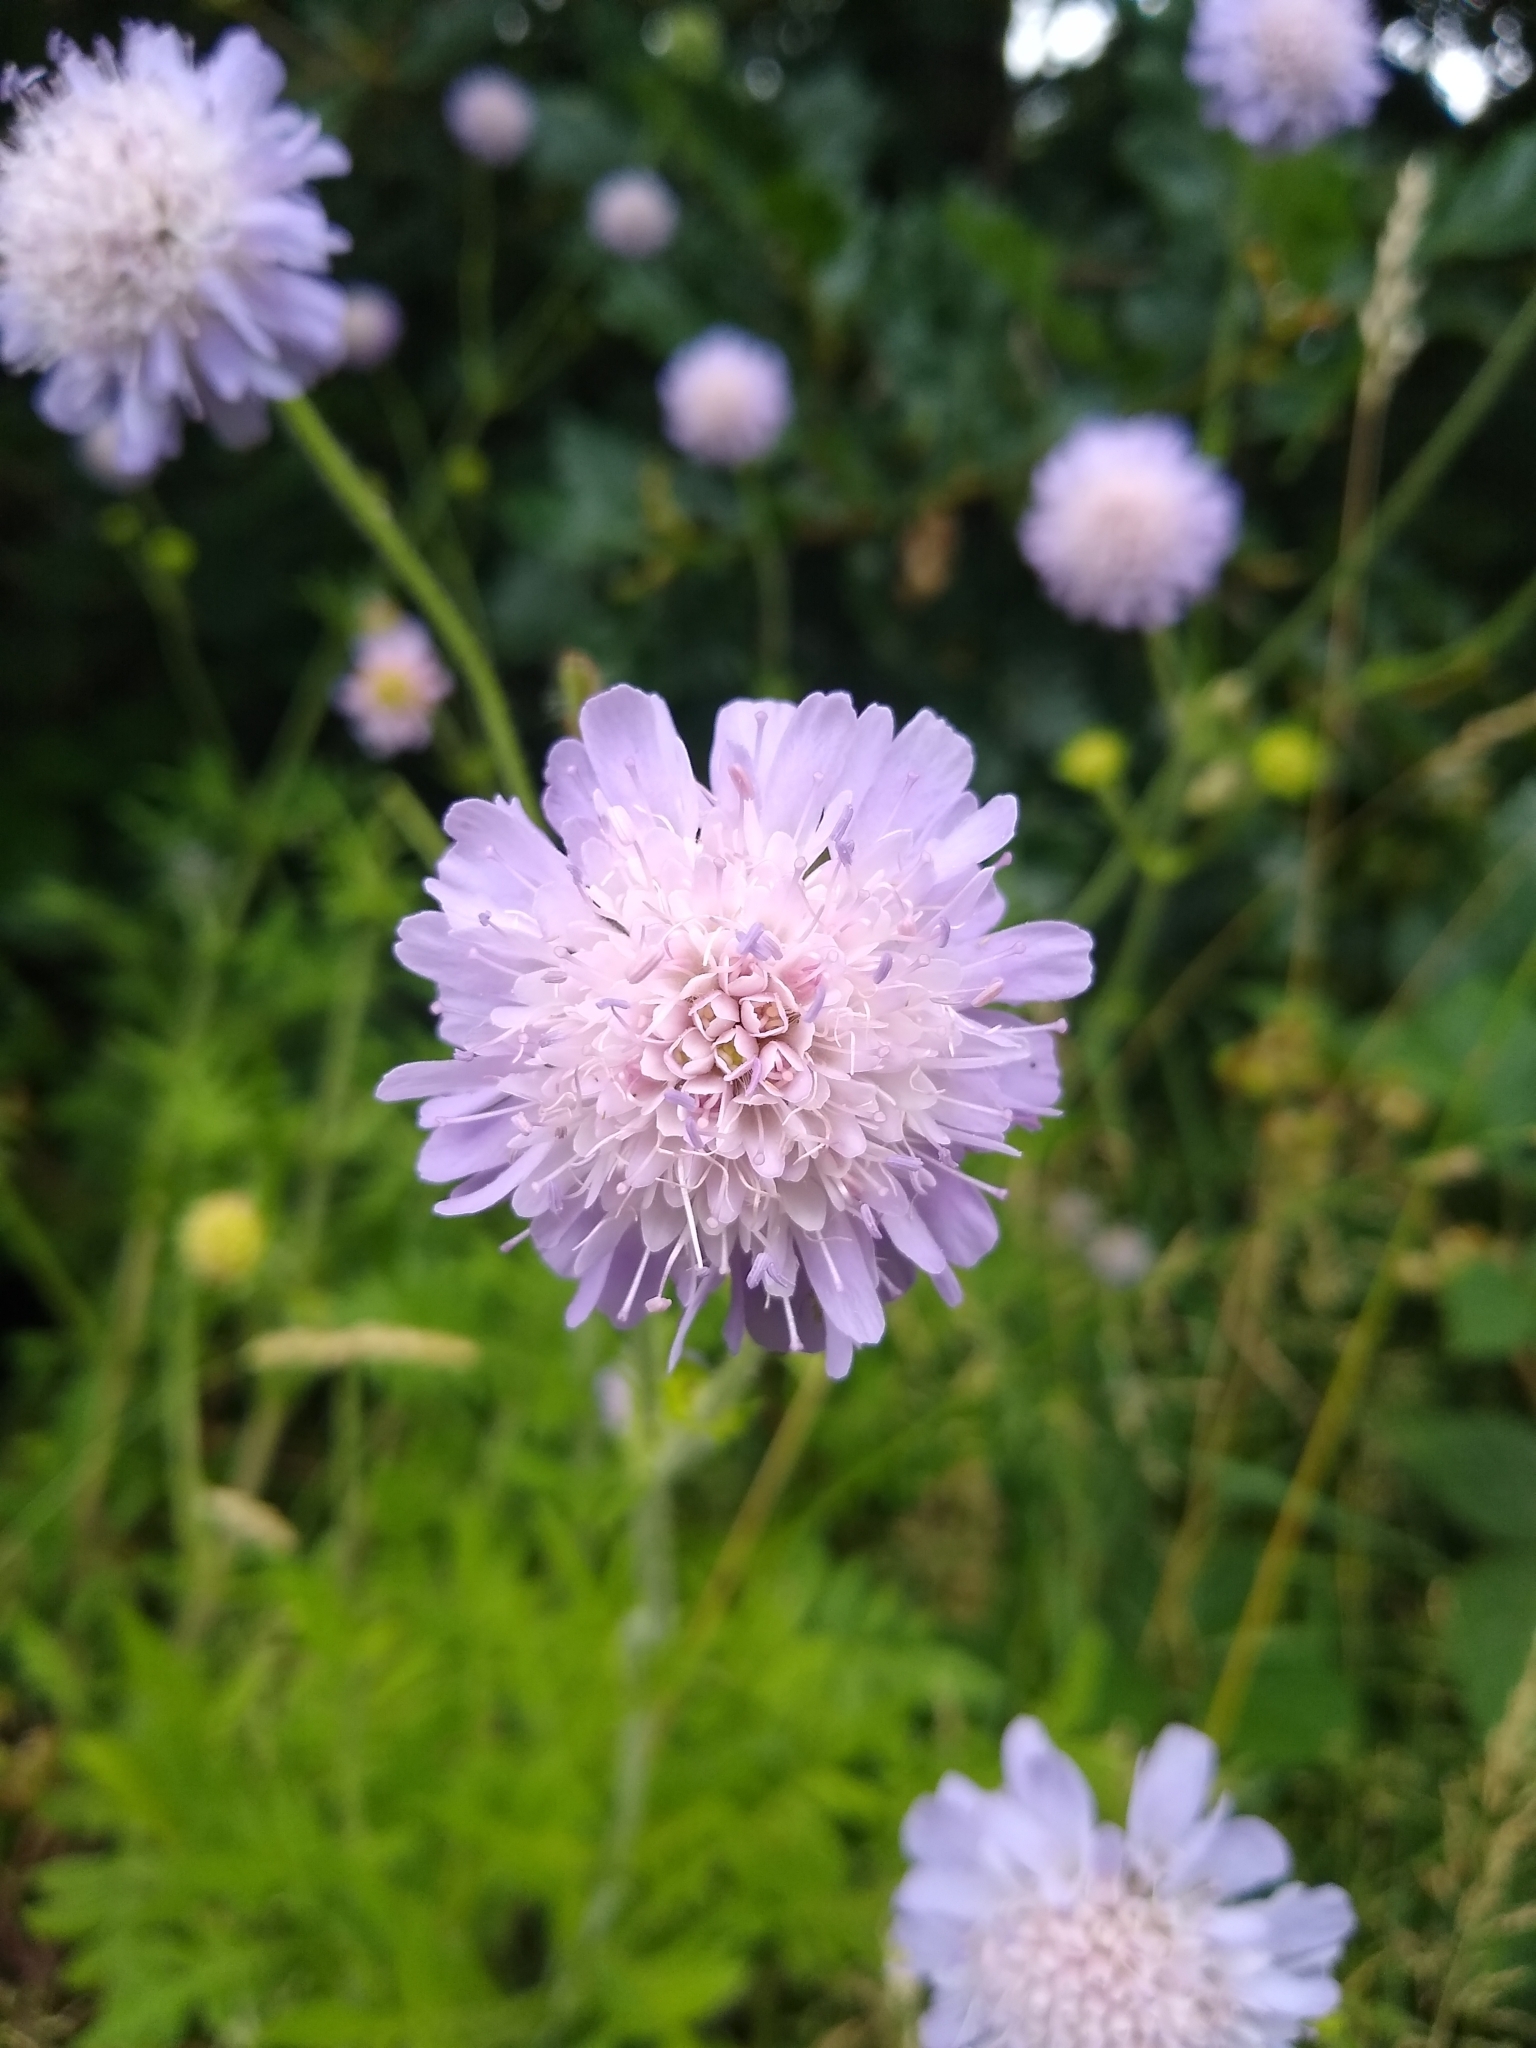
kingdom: Plantae
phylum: Tracheophyta
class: Magnoliopsida
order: Dipsacales
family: Caprifoliaceae
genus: Knautia
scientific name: Knautia arvensis
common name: Field scabiosa
